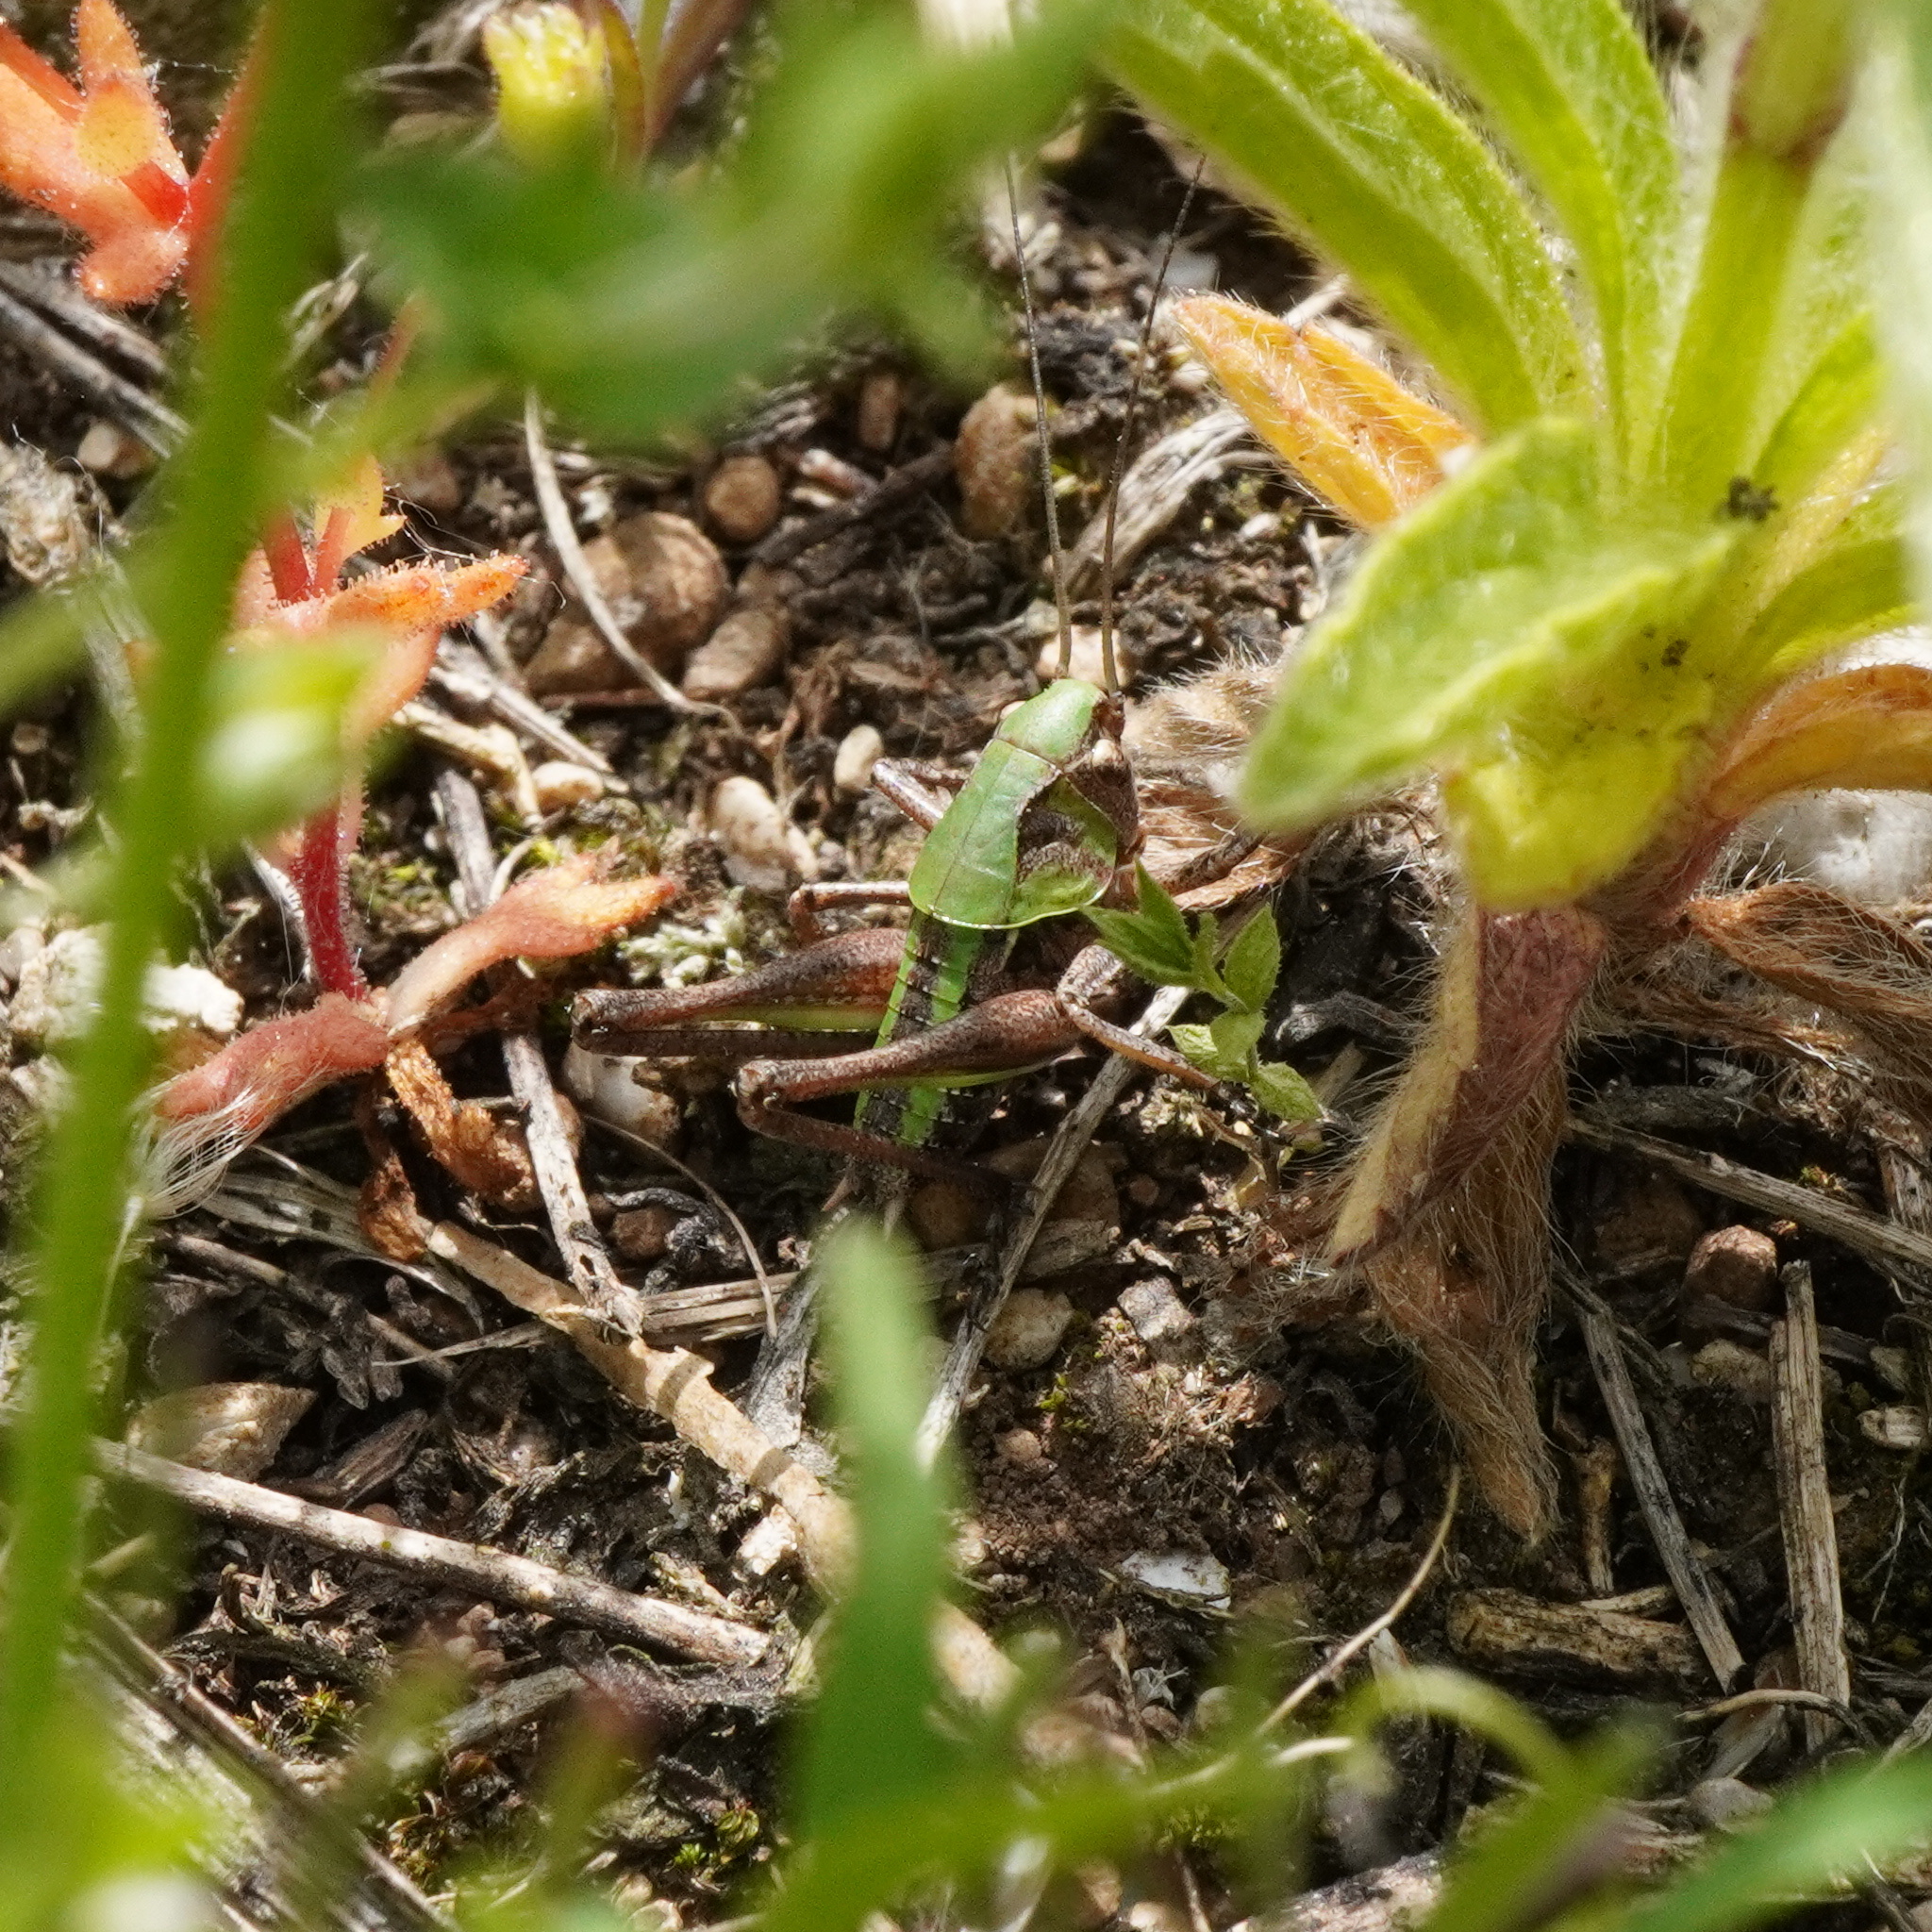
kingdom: Animalia
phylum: Arthropoda
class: Insecta
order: Orthoptera
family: Tettigoniidae
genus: Decticus
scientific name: Decticus verrucivorus
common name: Wart-biter
